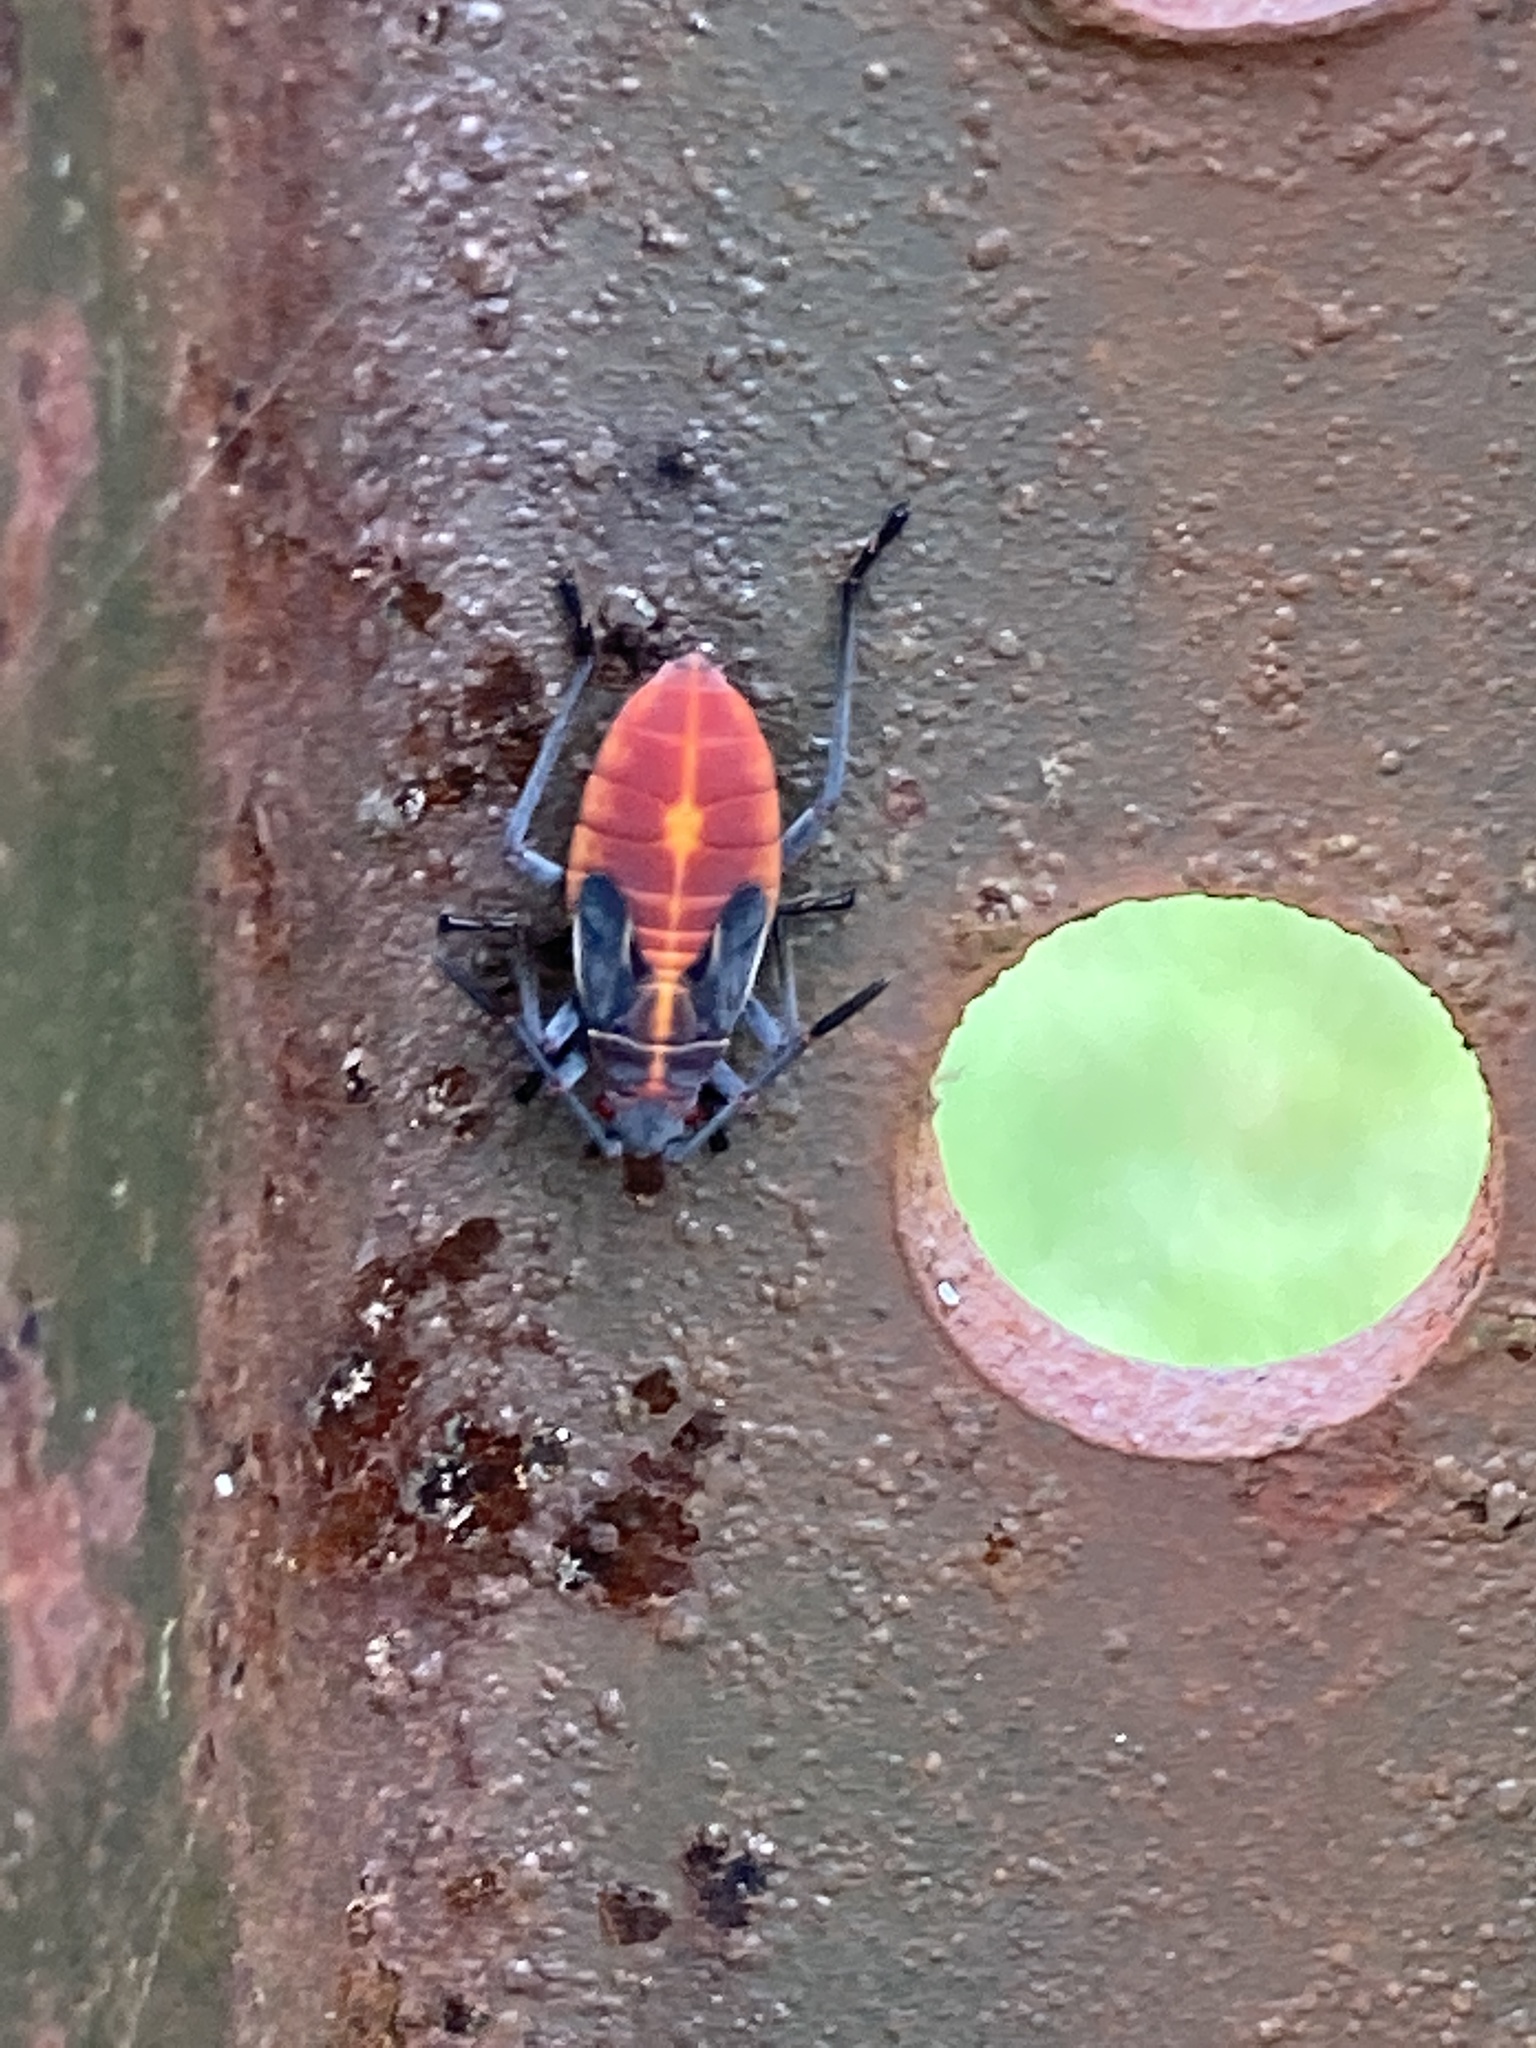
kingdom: Animalia
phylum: Arthropoda
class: Insecta
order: Hemiptera
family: Rhopalidae
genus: Boisea
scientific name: Boisea trivittata
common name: Boxelder bug
